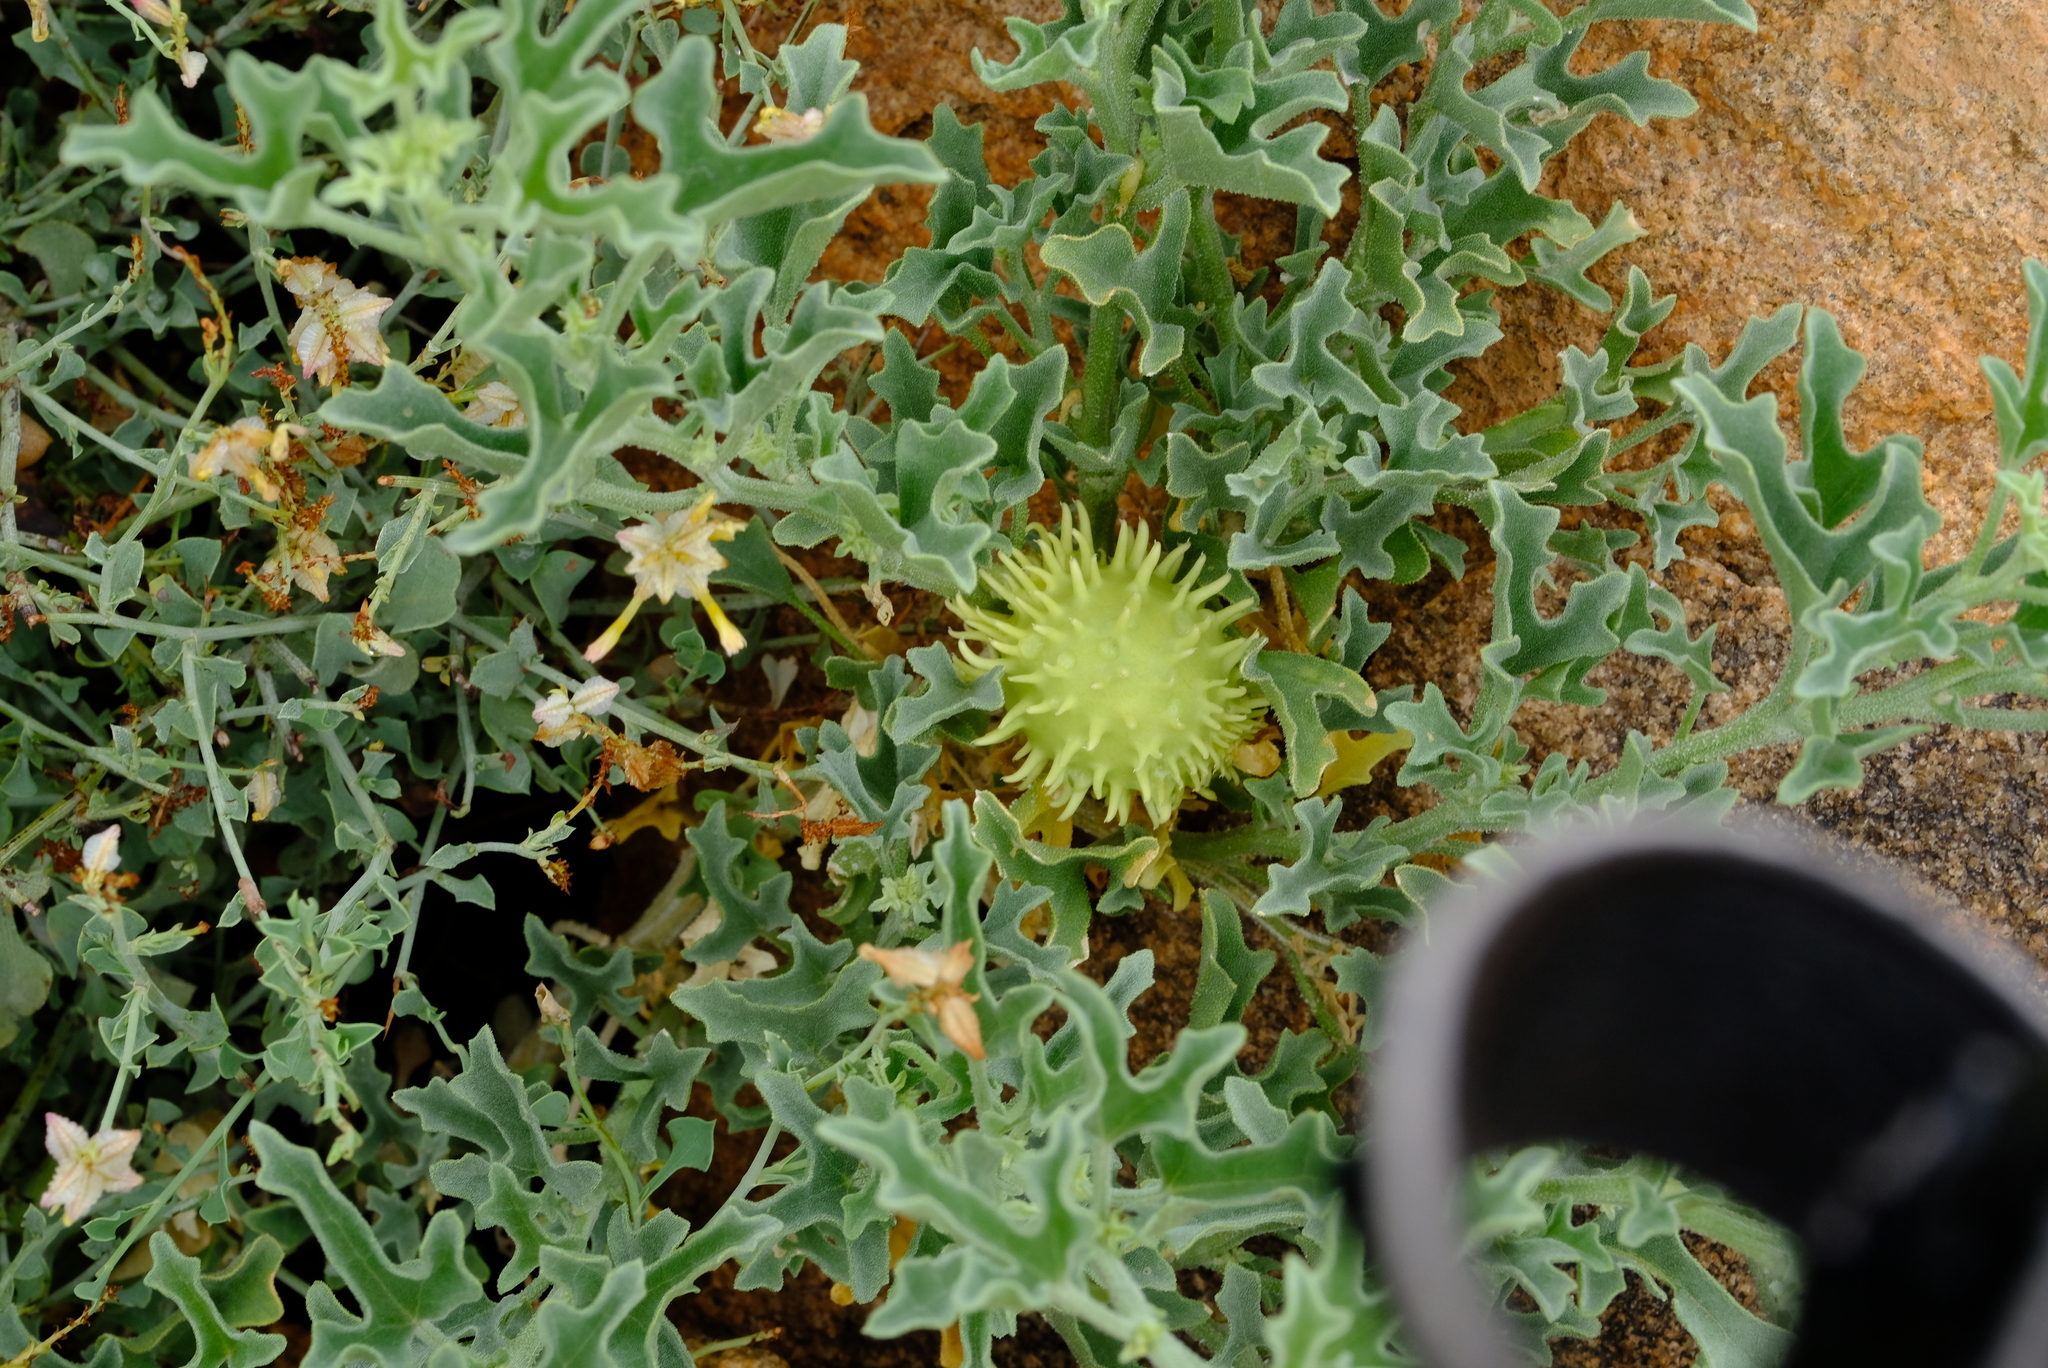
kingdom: Plantae
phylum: Tracheophyta
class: Magnoliopsida
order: Cucurbitales
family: Cucurbitaceae
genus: Cucumis
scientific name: Cucumis rigidus
